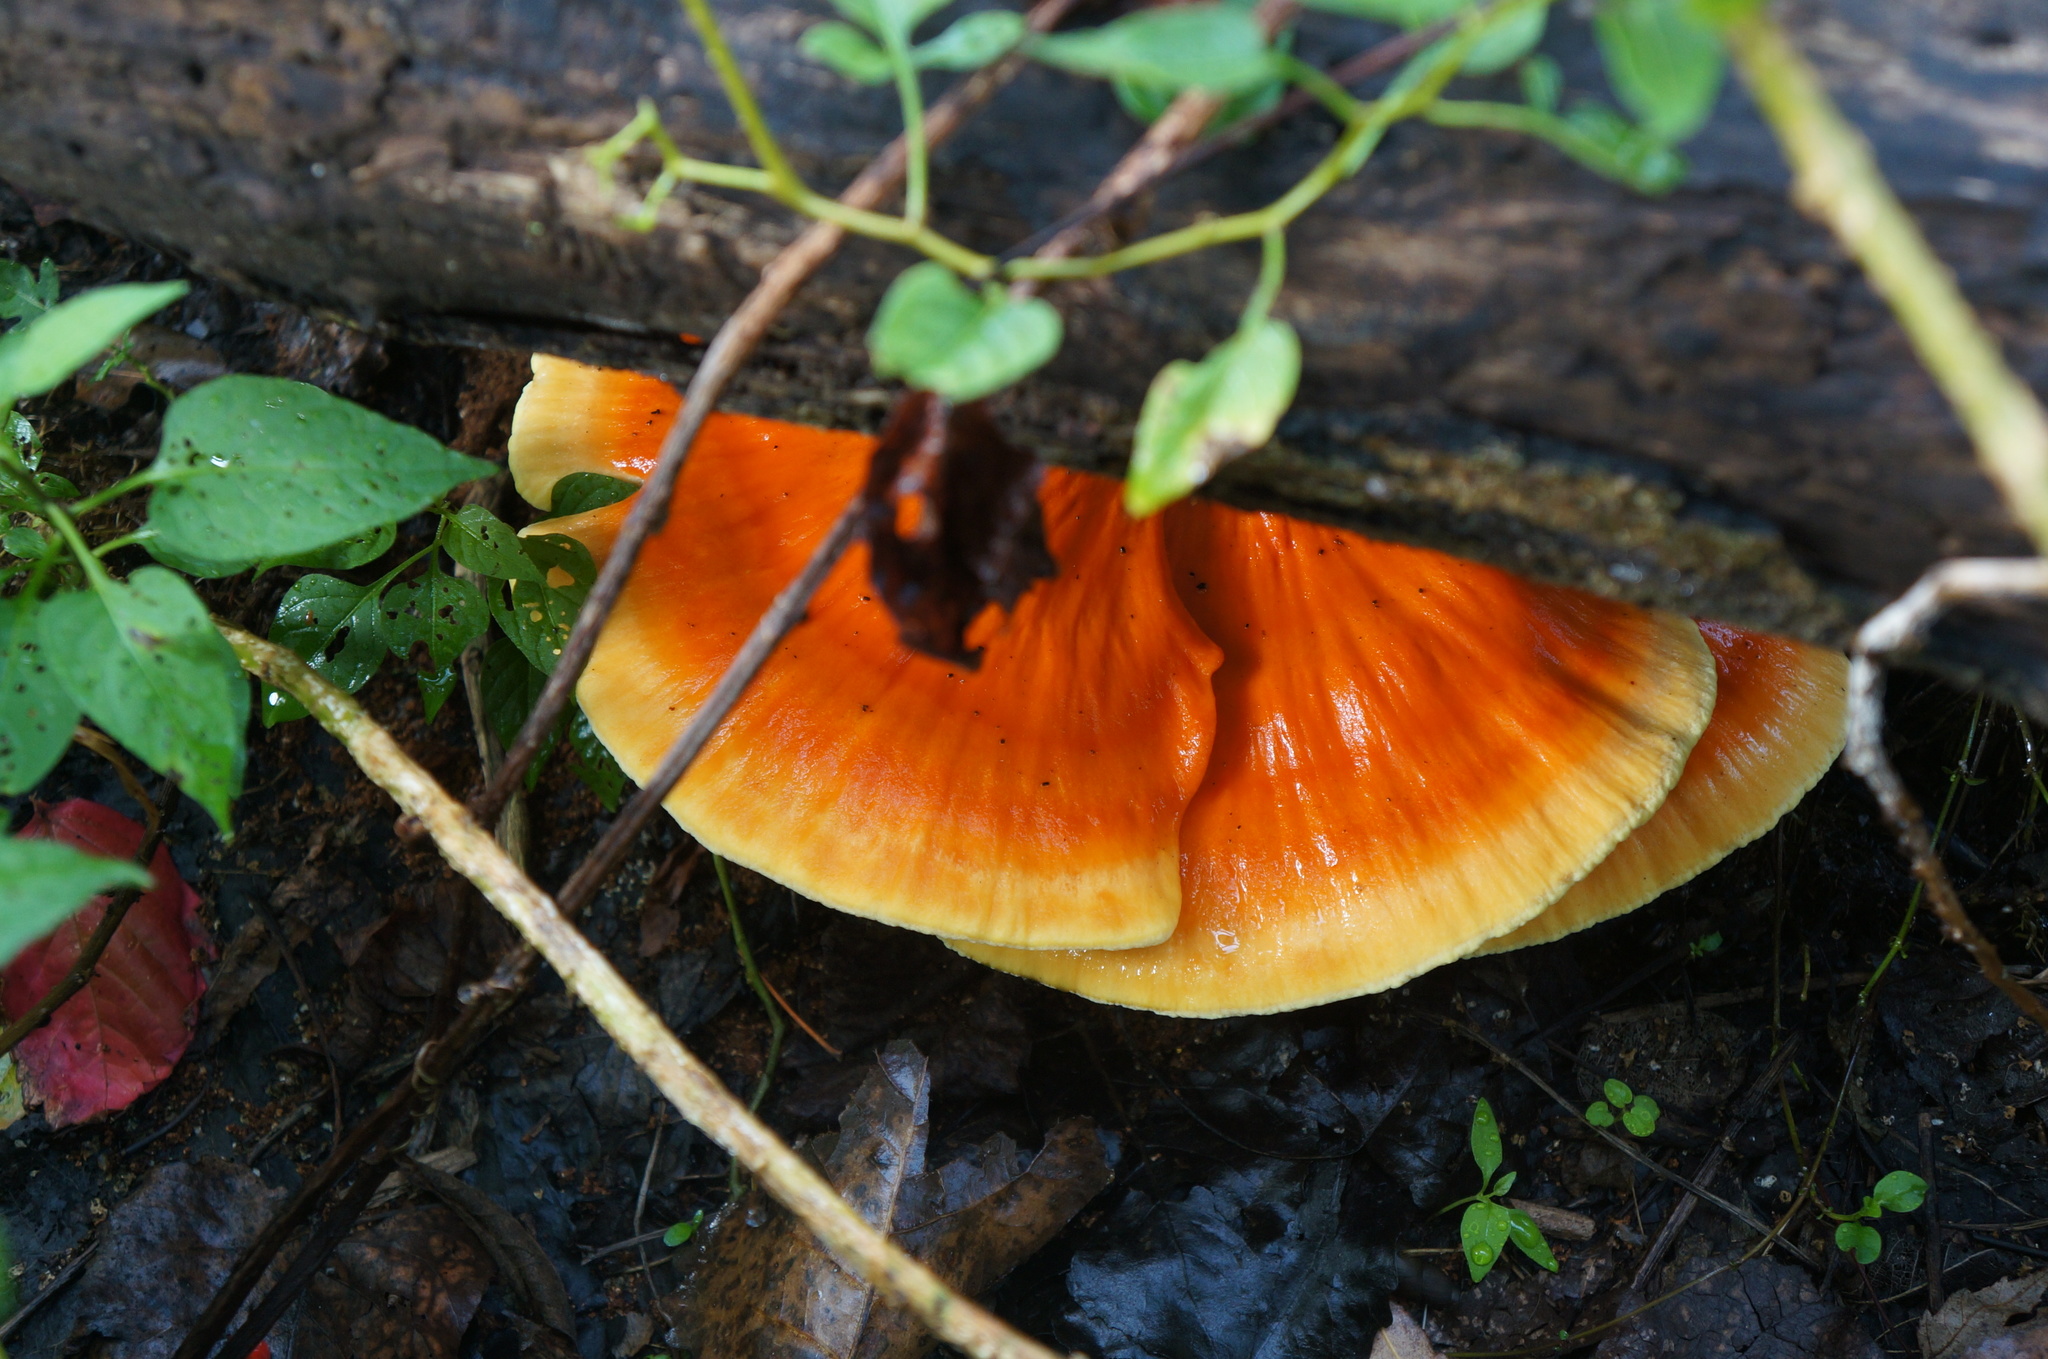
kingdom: Fungi
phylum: Basidiomycota
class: Agaricomycetes
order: Polyporales
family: Laetiporaceae
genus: Laetiporus
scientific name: Laetiporus sulphureus
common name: Chicken of the woods
